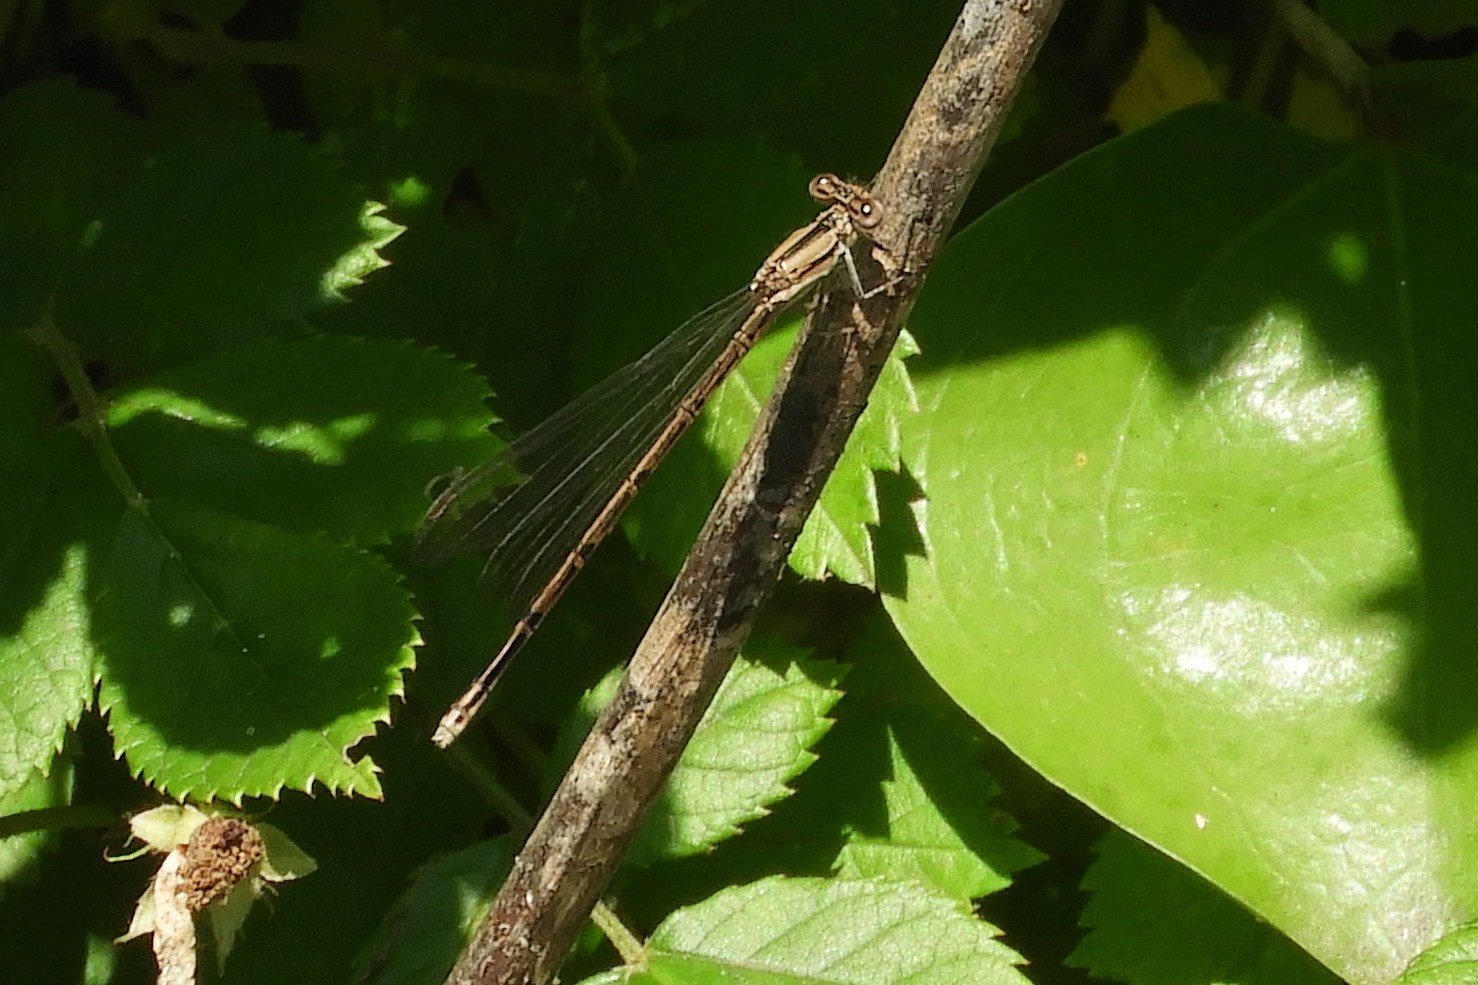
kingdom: Animalia
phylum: Arthropoda
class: Insecta
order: Odonata
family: Coenagrionidae
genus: Argia
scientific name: Argia fumipennis
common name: Variable dancer
